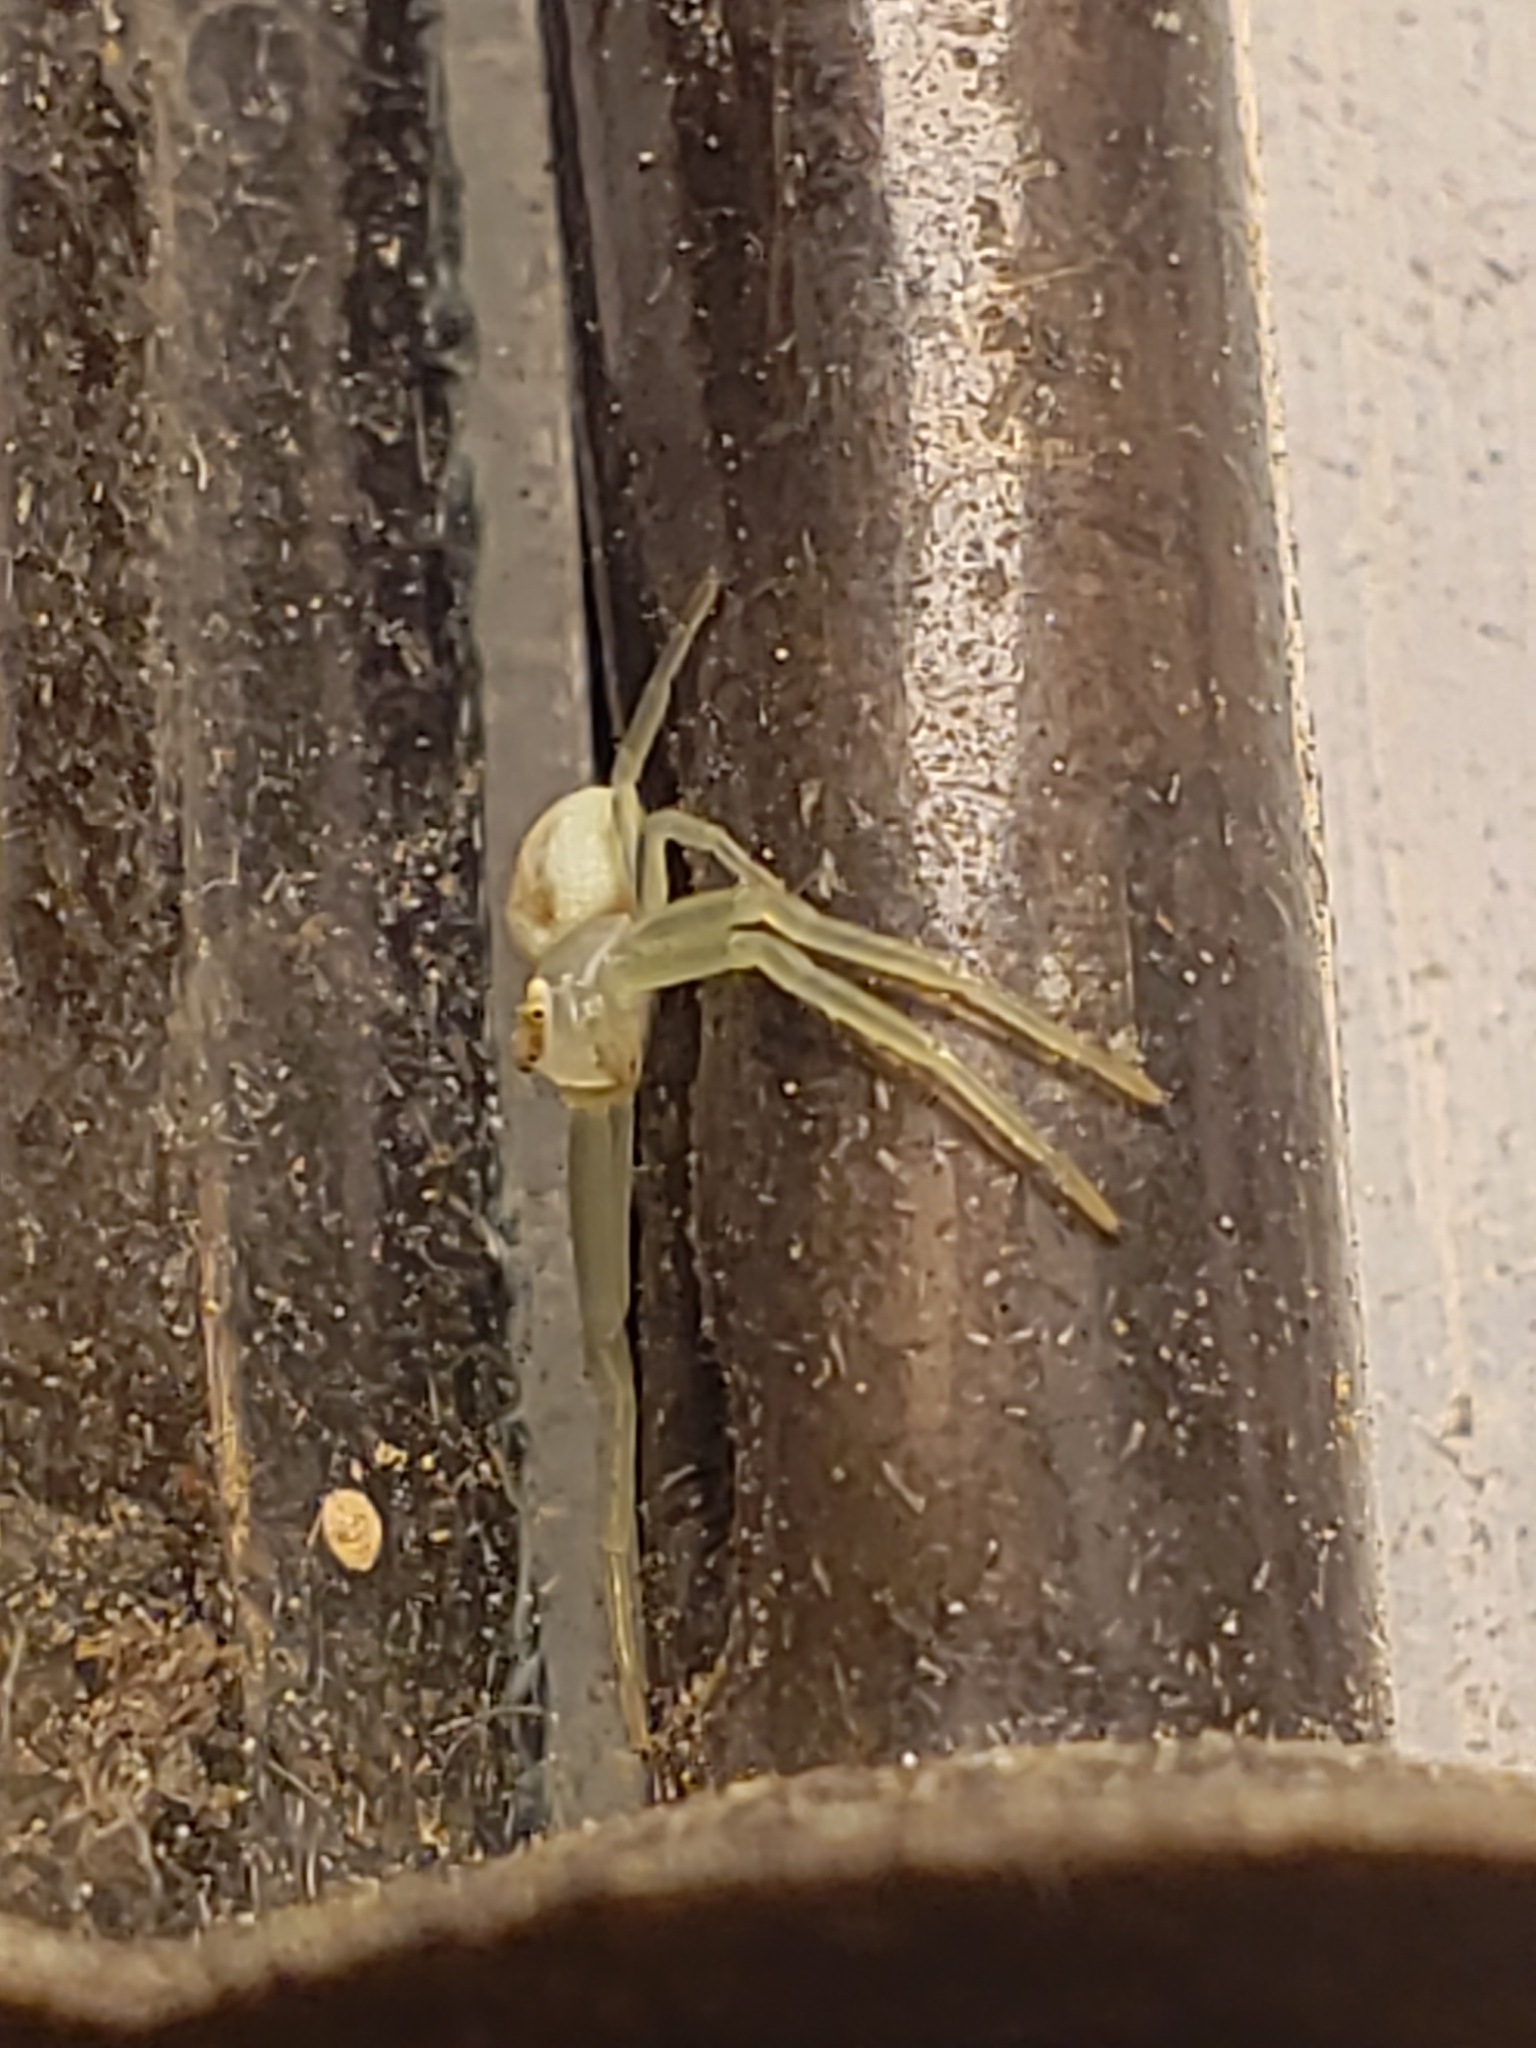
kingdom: Animalia
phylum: Arthropoda
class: Arachnida
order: Araneae
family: Thomisidae
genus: Misumessus
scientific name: Misumessus oblongus
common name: American green crab spider
